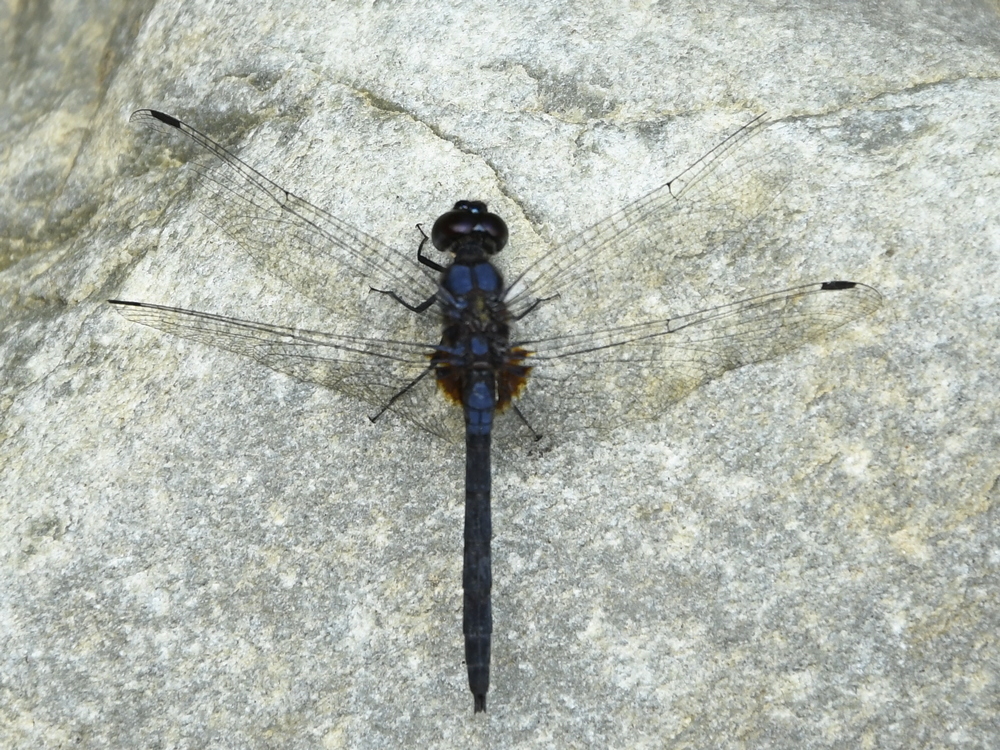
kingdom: Animalia
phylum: Arthropoda
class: Insecta
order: Odonata
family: Libellulidae
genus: Trithemis
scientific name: Trithemis festiva
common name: Indigo dropwing
